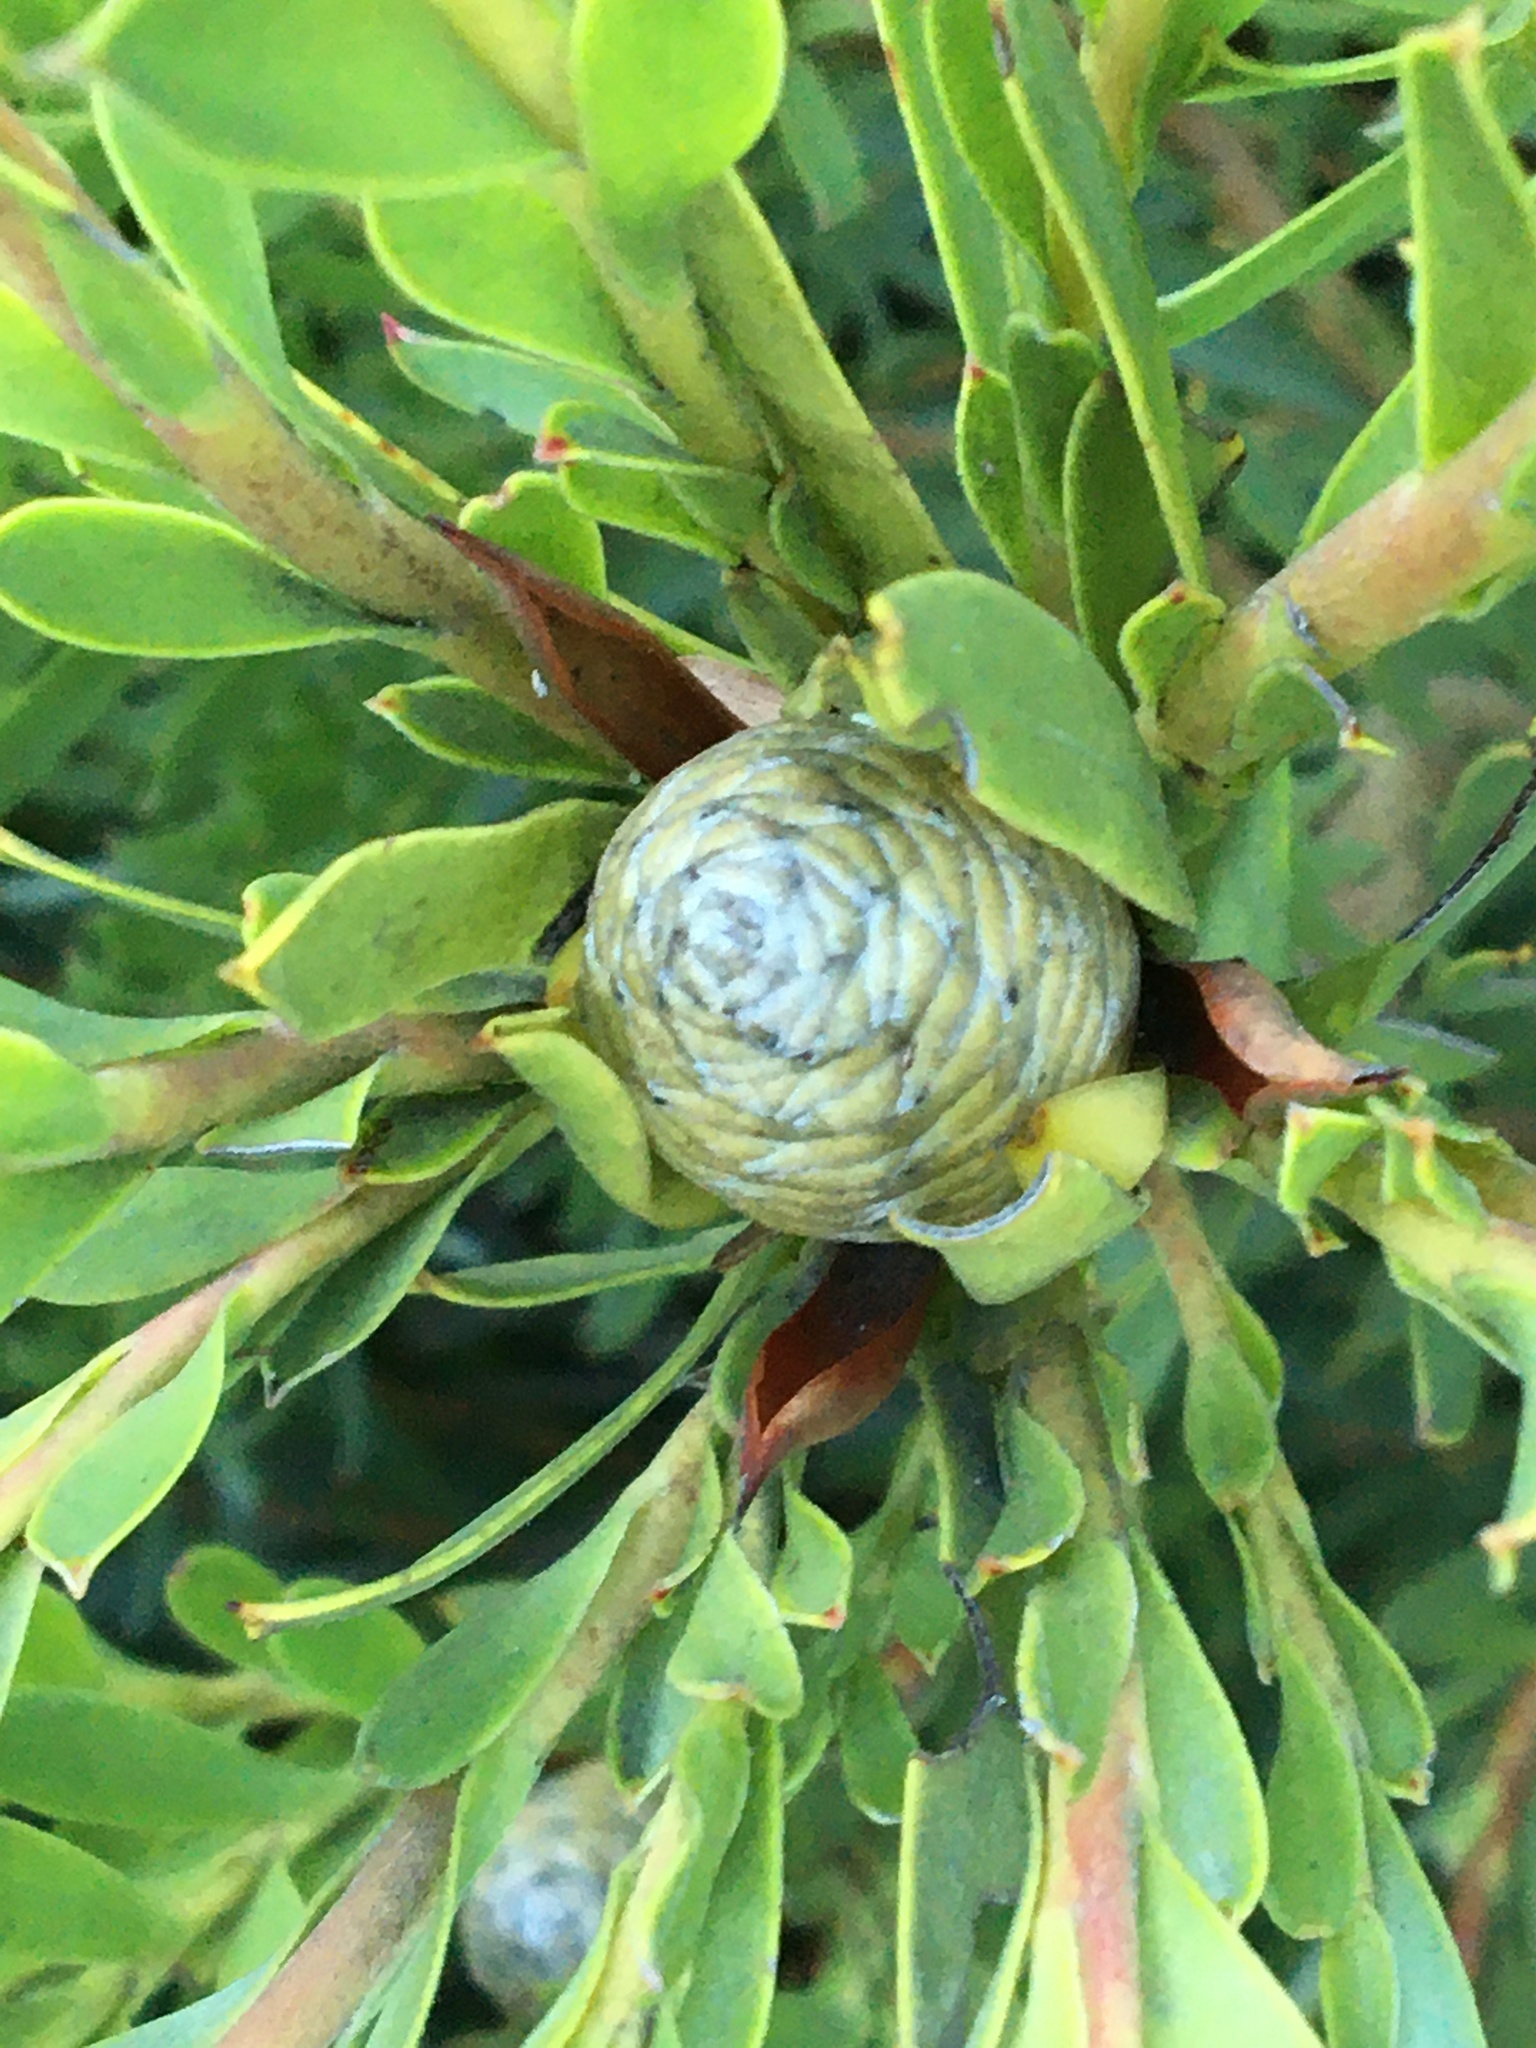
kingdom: Plantae
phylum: Tracheophyta
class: Magnoliopsida
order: Proteales
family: Proteaceae
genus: Leucadendron
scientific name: Leucadendron coniferum
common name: Dune conebush
